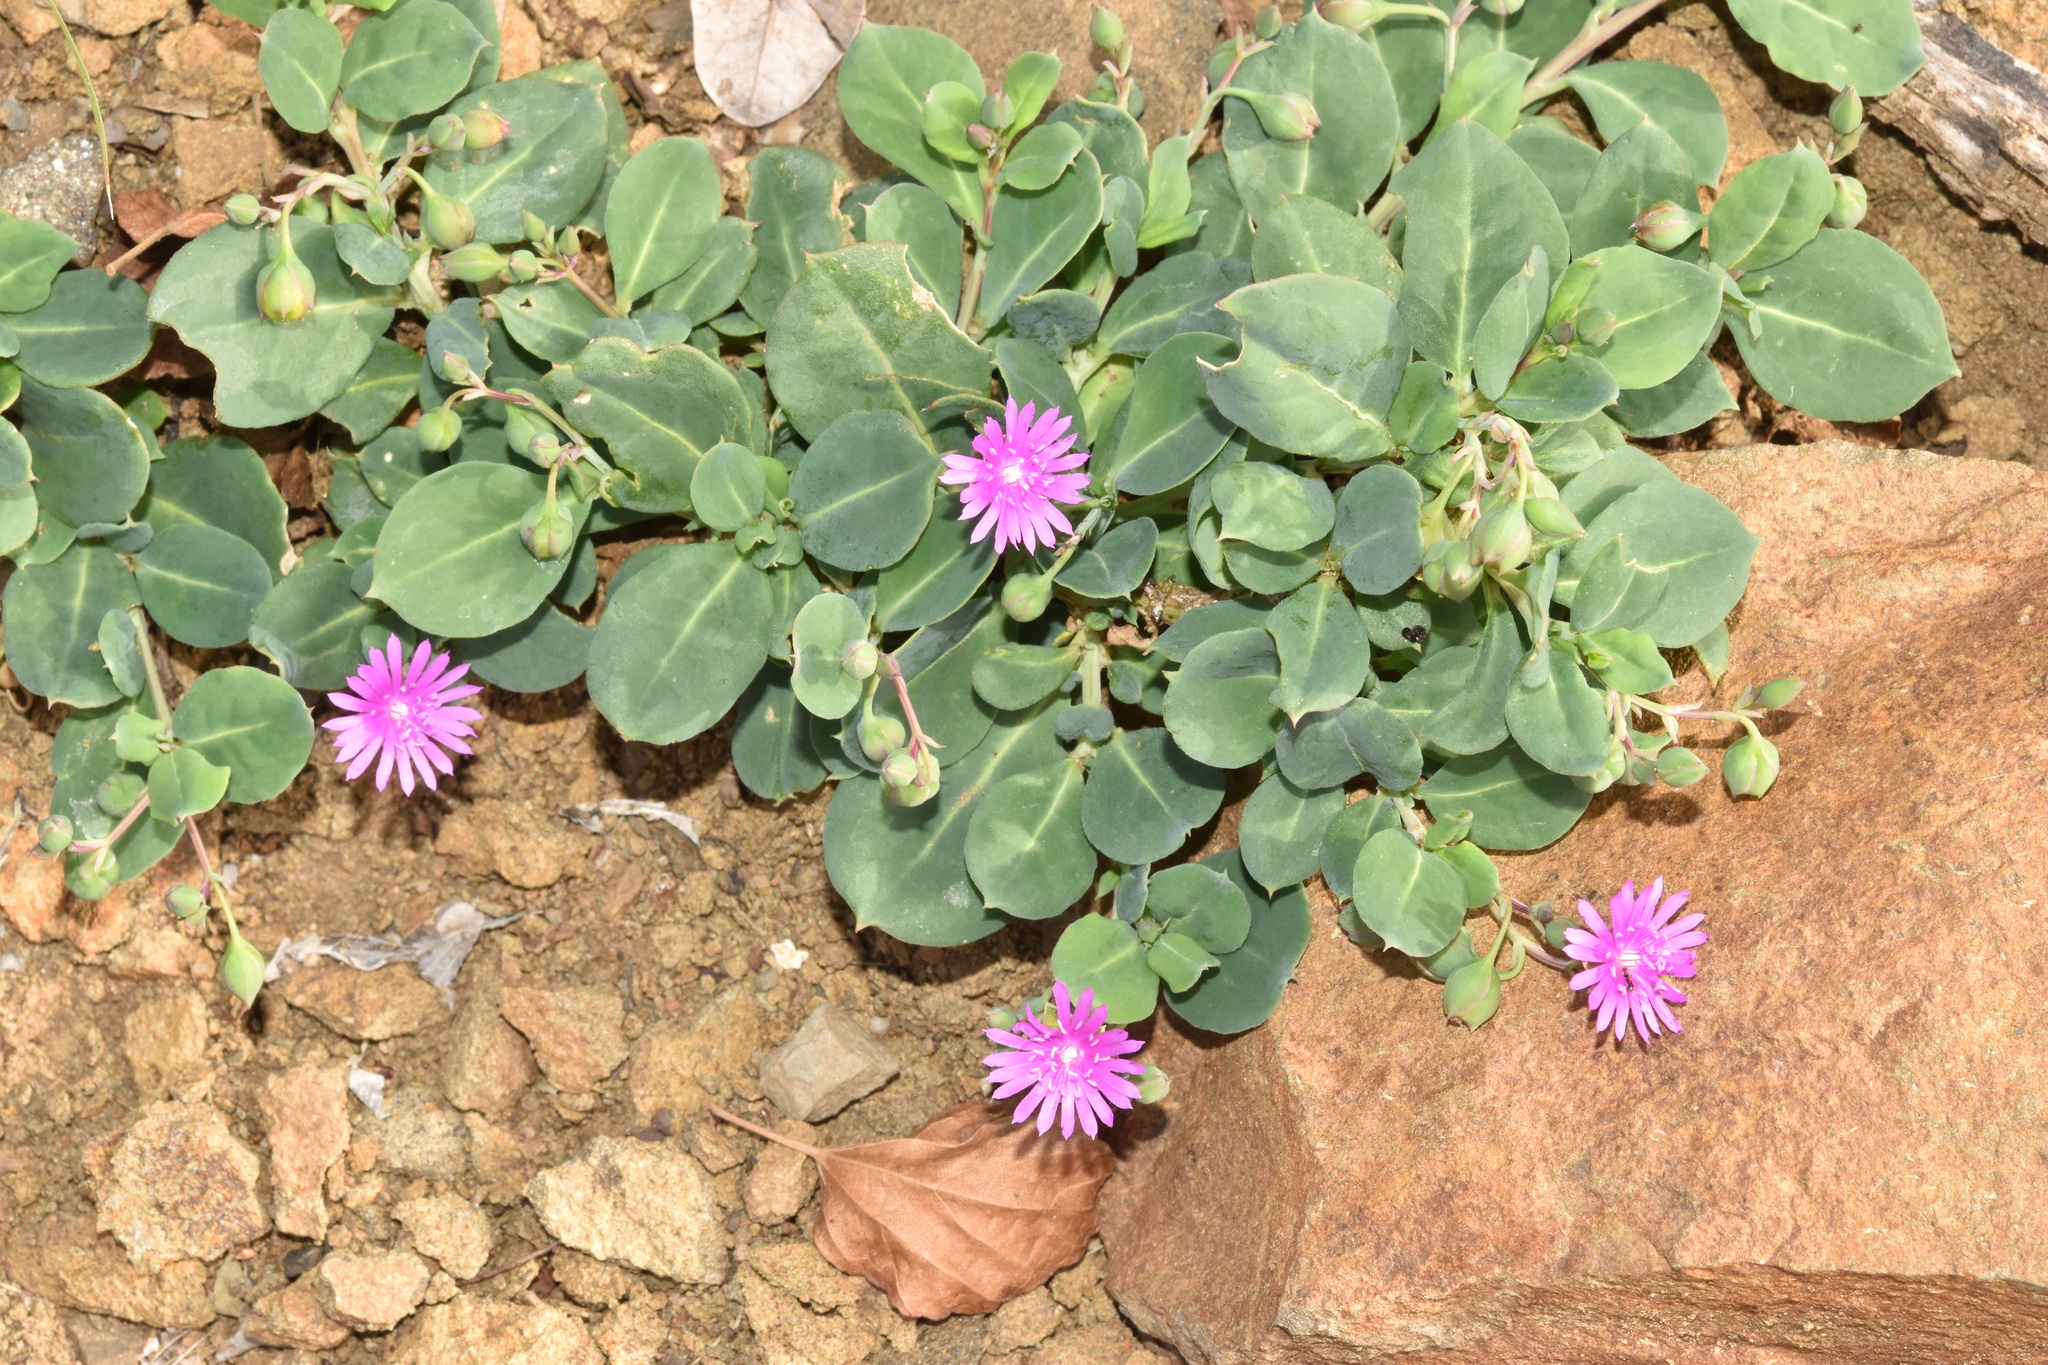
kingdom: Plantae
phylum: Tracheophyta
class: Magnoliopsida
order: Caryophyllales
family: Corbichoniaceae
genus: Corbichonia
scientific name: Corbichonia decumbens
